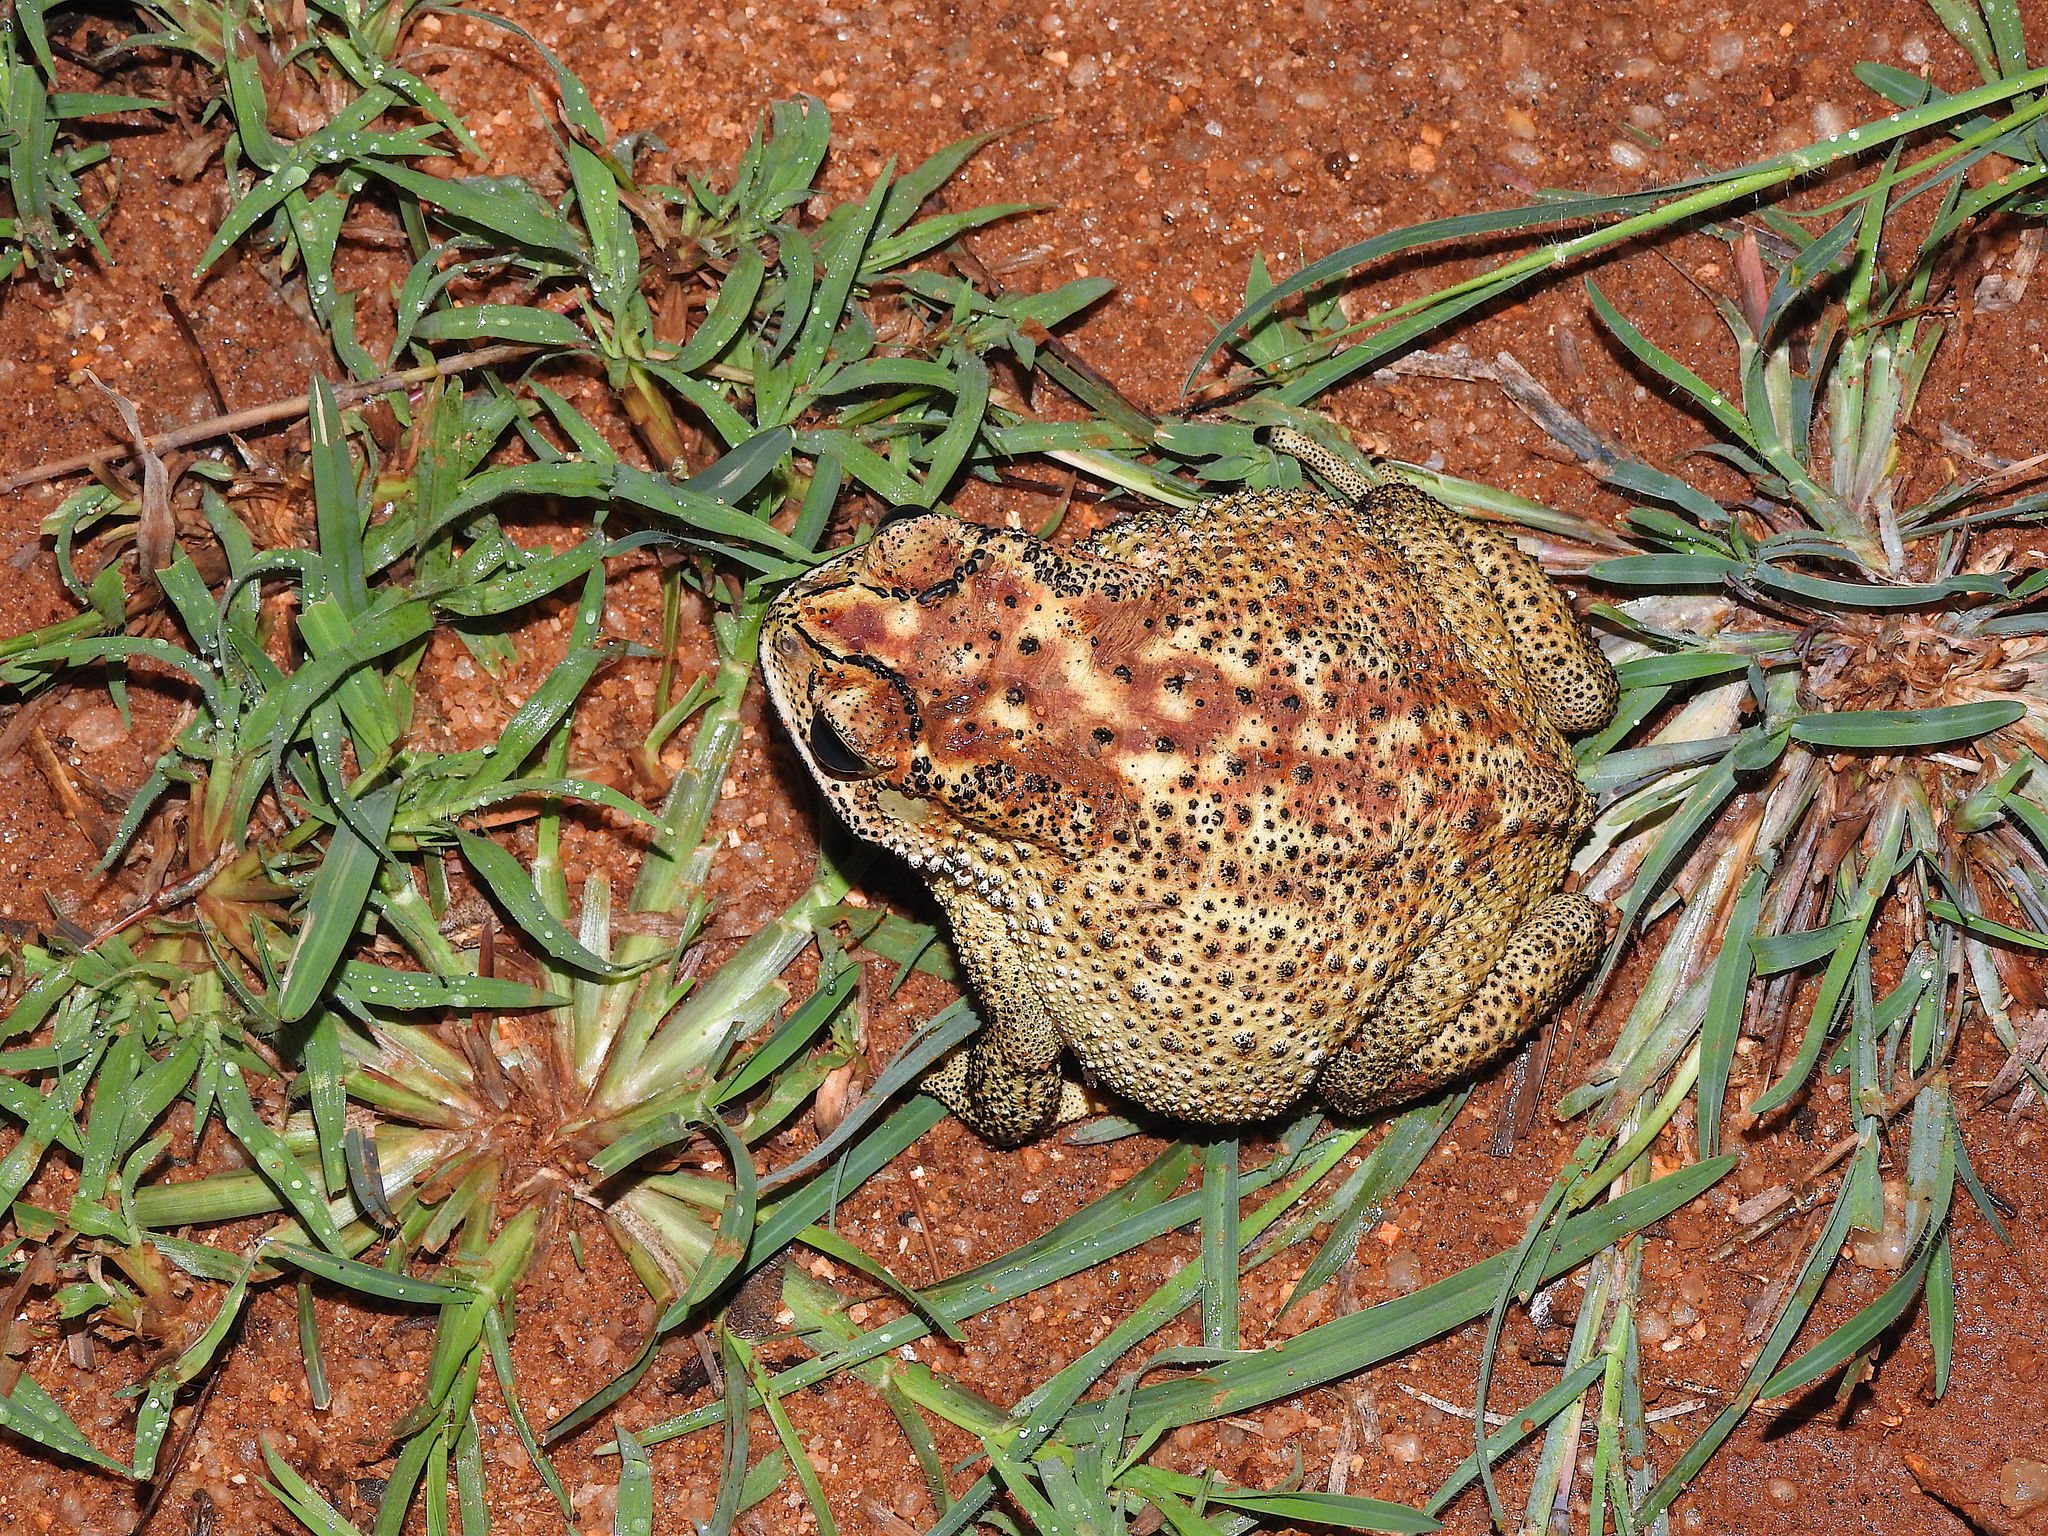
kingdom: Animalia
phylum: Chordata
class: Amphibia
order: Anura
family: Bufonidae
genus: Duttaphrynus
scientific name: Duttaphrynus melanostictus
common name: Common sunda toad
